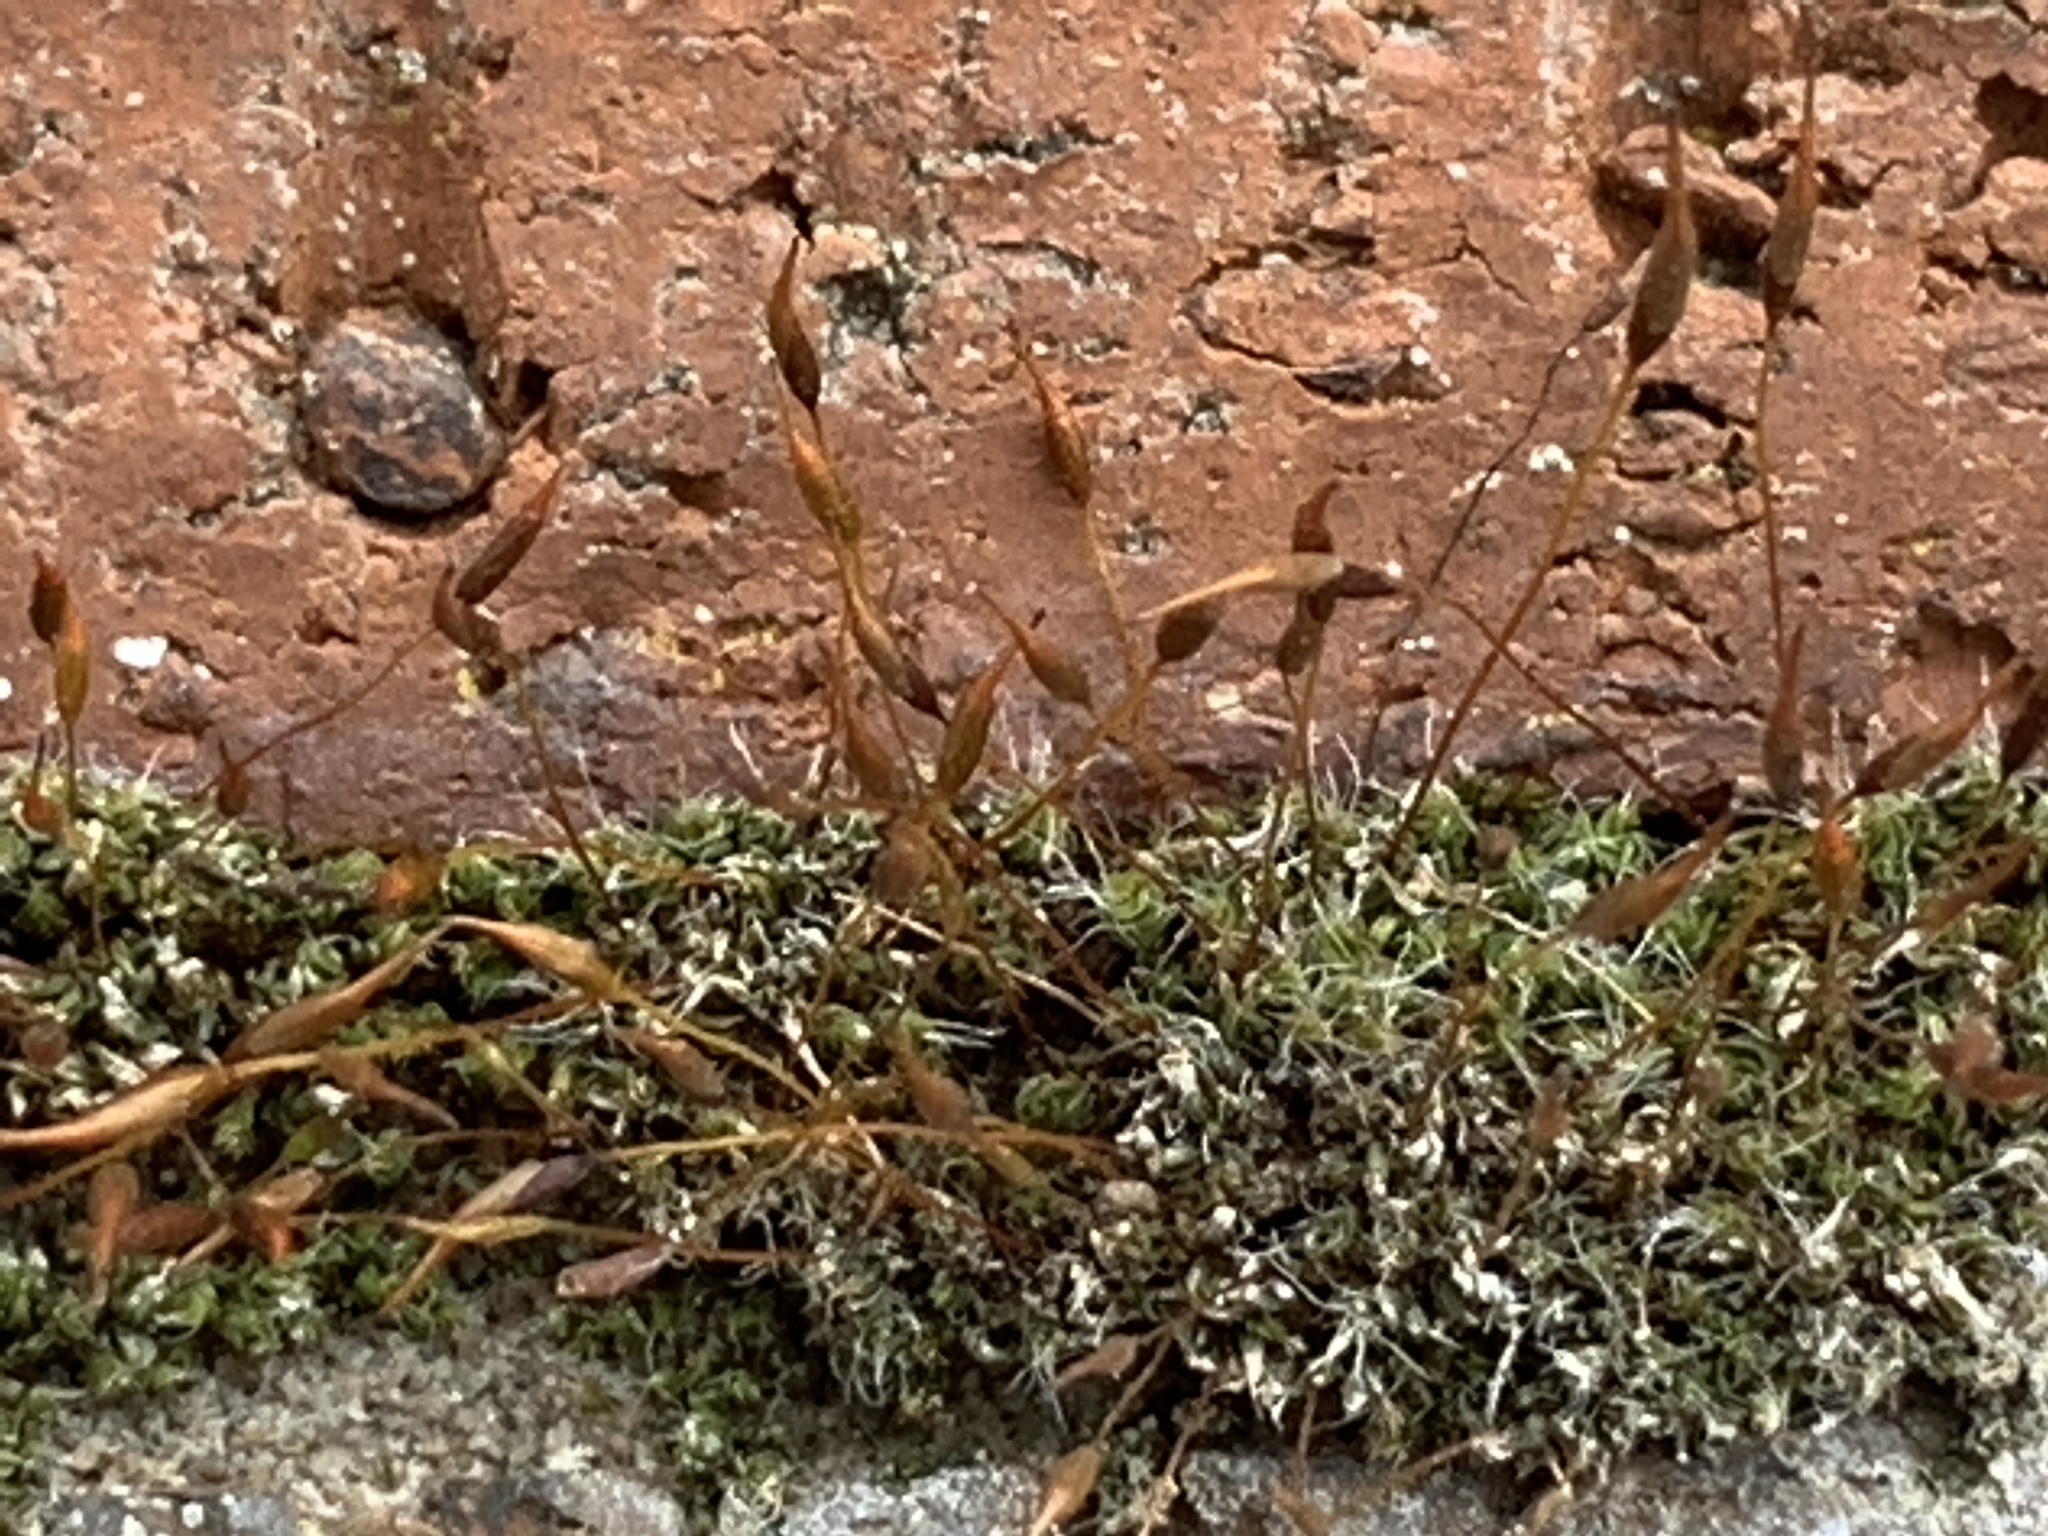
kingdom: Plantae
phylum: Bryophyta
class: Bryopsida
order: Pottiales
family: Pottiaceae
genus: Tortula
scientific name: Tortula muralis
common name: Wall screw-moss
